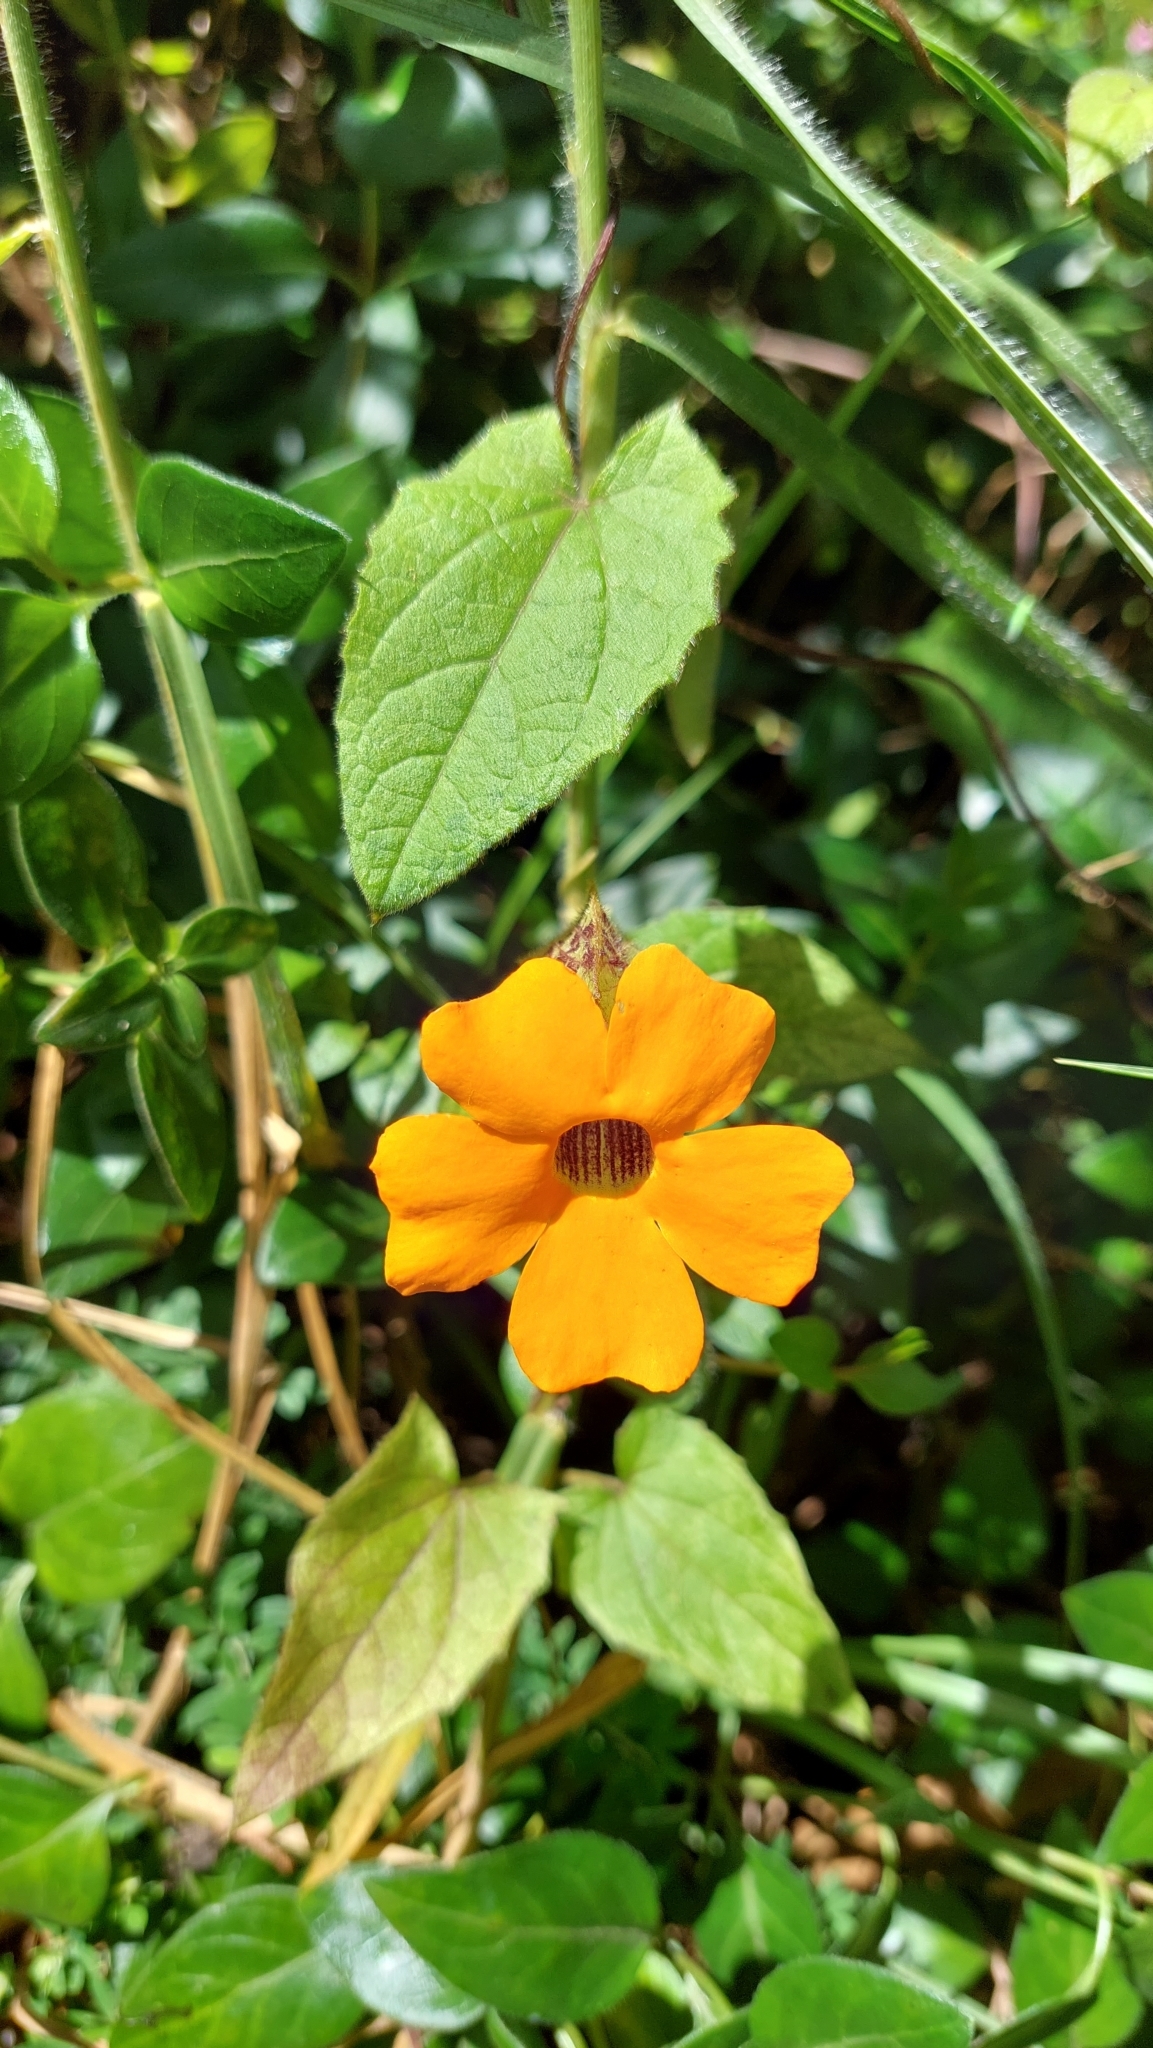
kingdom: Plantae
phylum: Tracheophyta
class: Magnoliopsida
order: Lamiales
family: Acanthaceae
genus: Thunbergia
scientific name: Thunbergia alata
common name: Blackeyed susan vine
